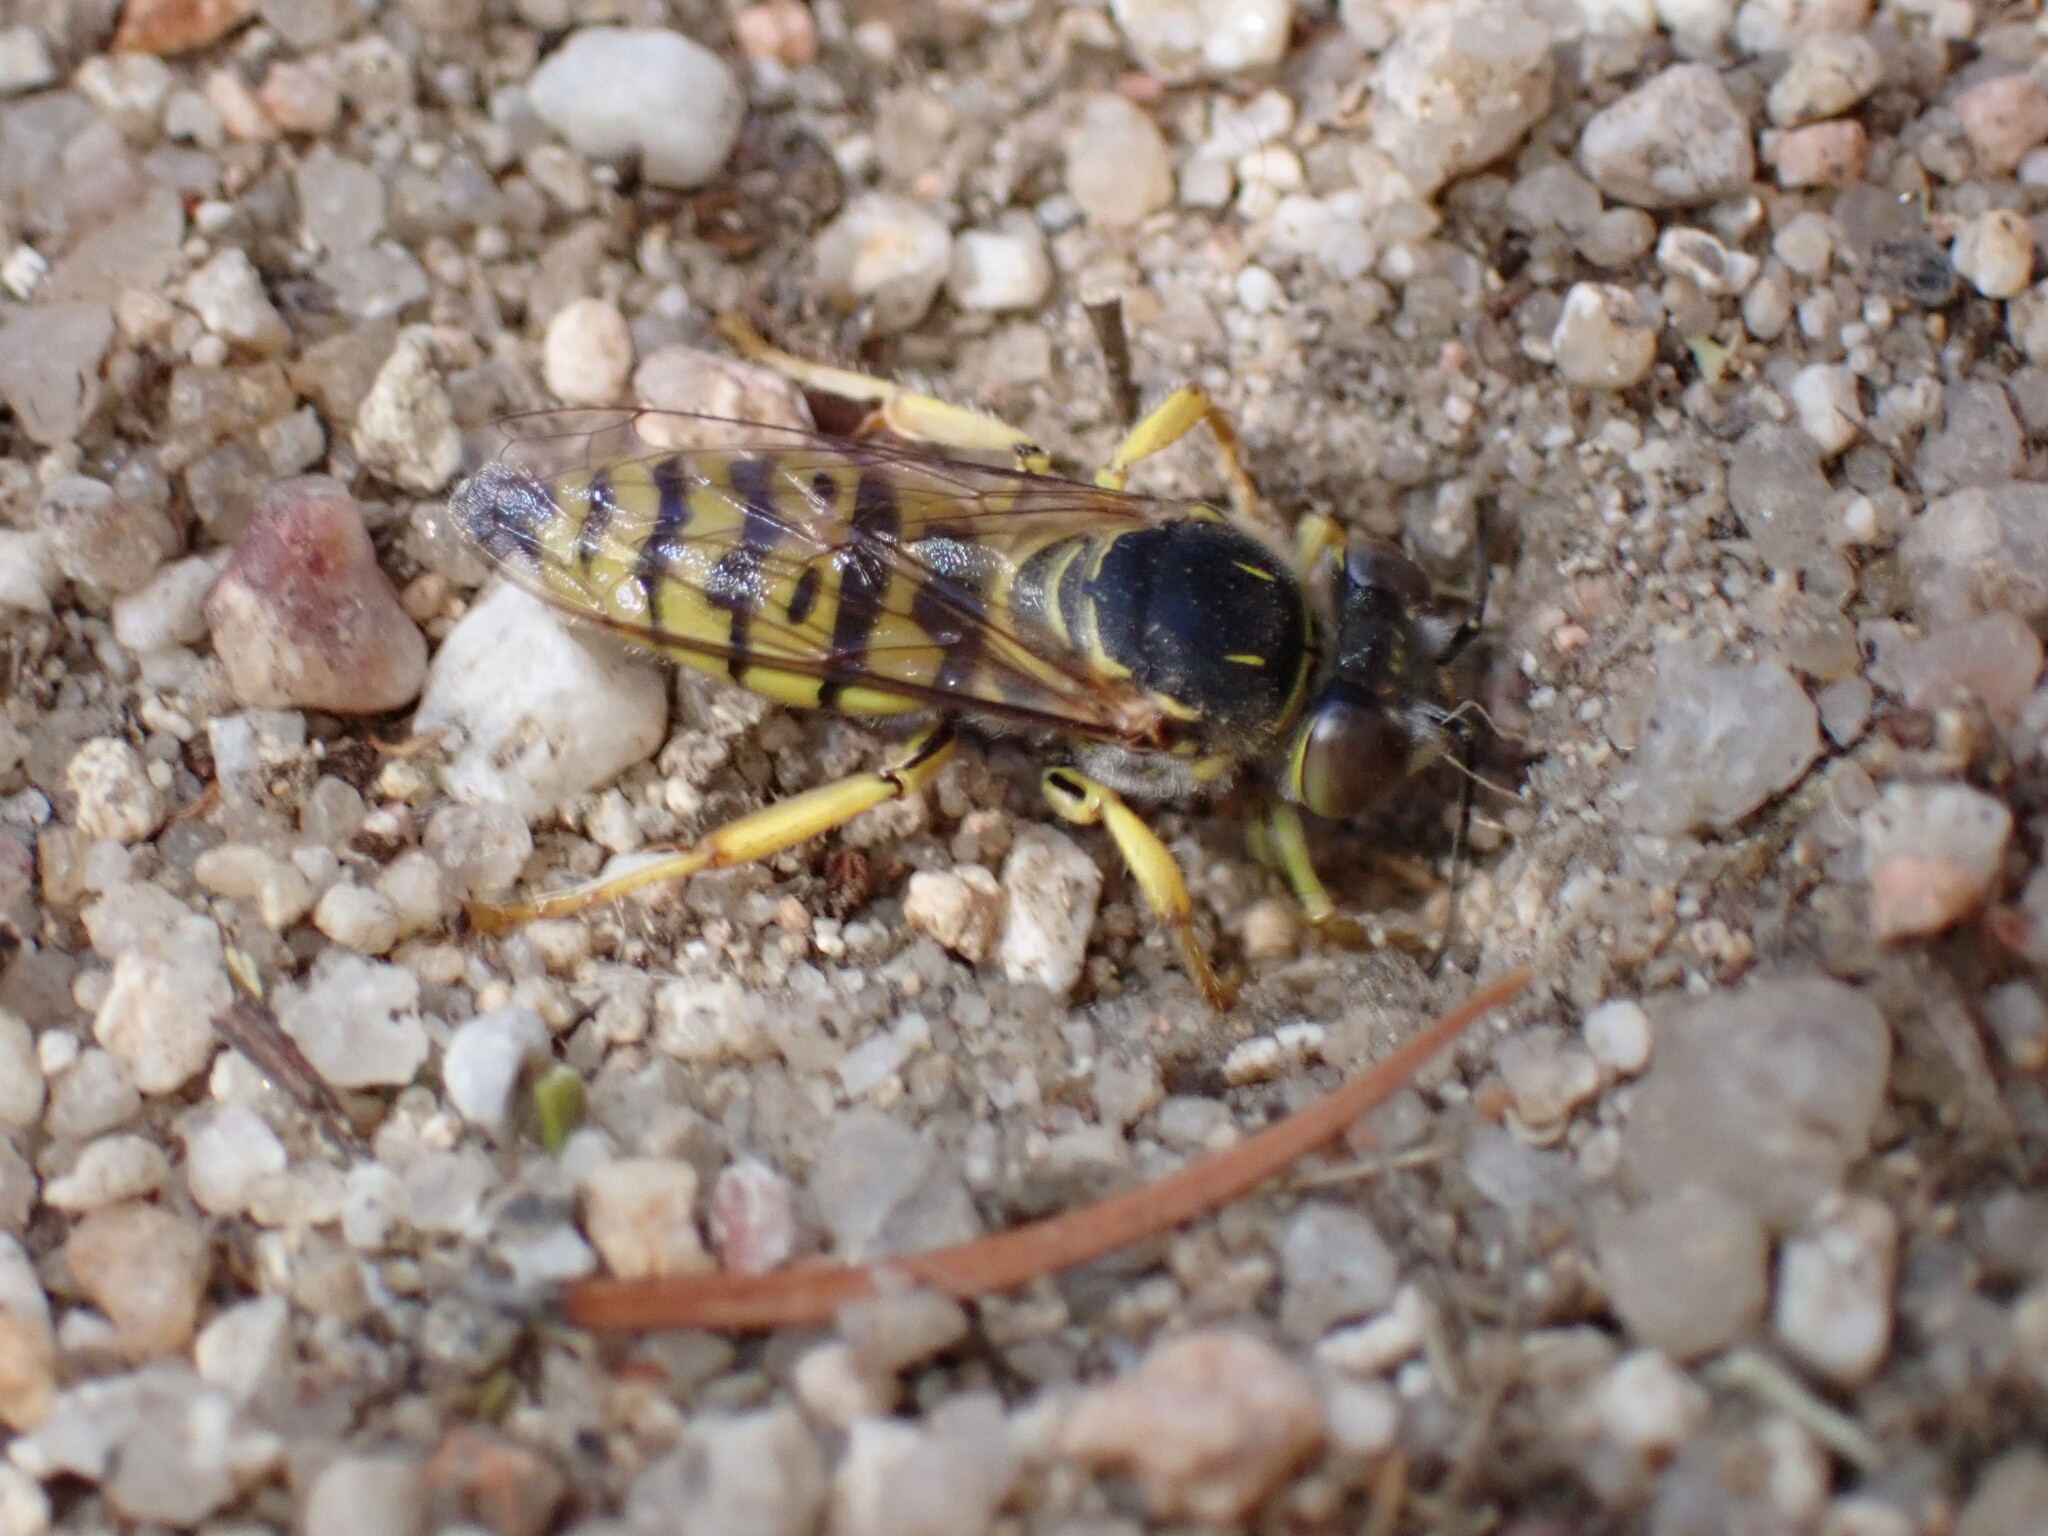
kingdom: Animalia
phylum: Arthropoda
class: Insecta
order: Hymenoptera
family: Crabronidae
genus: Bembix
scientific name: Bembix oculata
